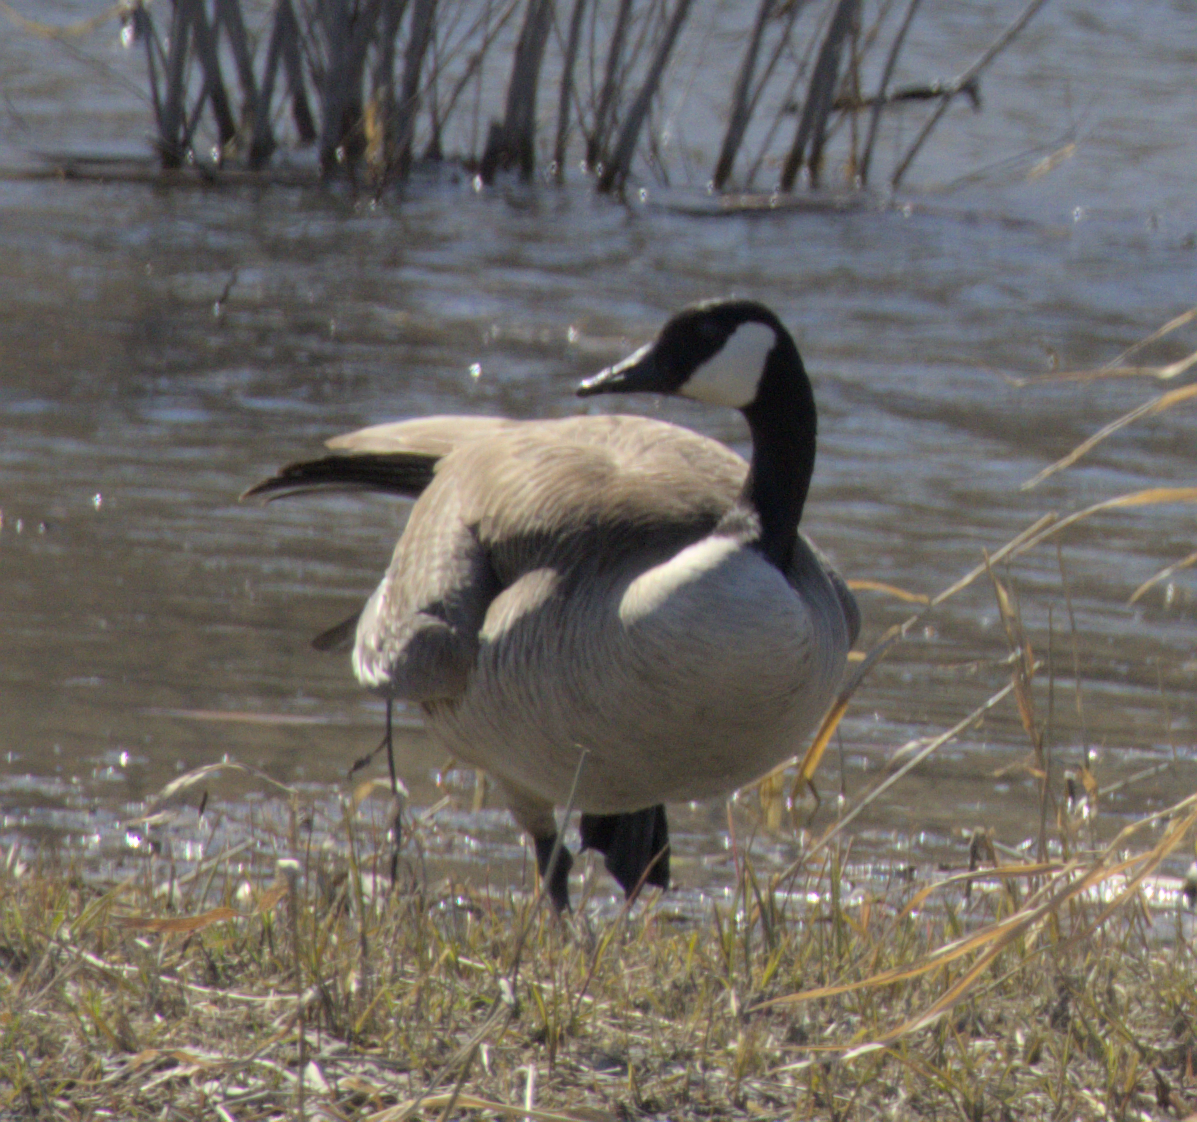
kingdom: Animalia
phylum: Chordata
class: Aves
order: Anseriformes
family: Anatidae
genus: Branta
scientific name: Branta canadensis
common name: Canada goose
